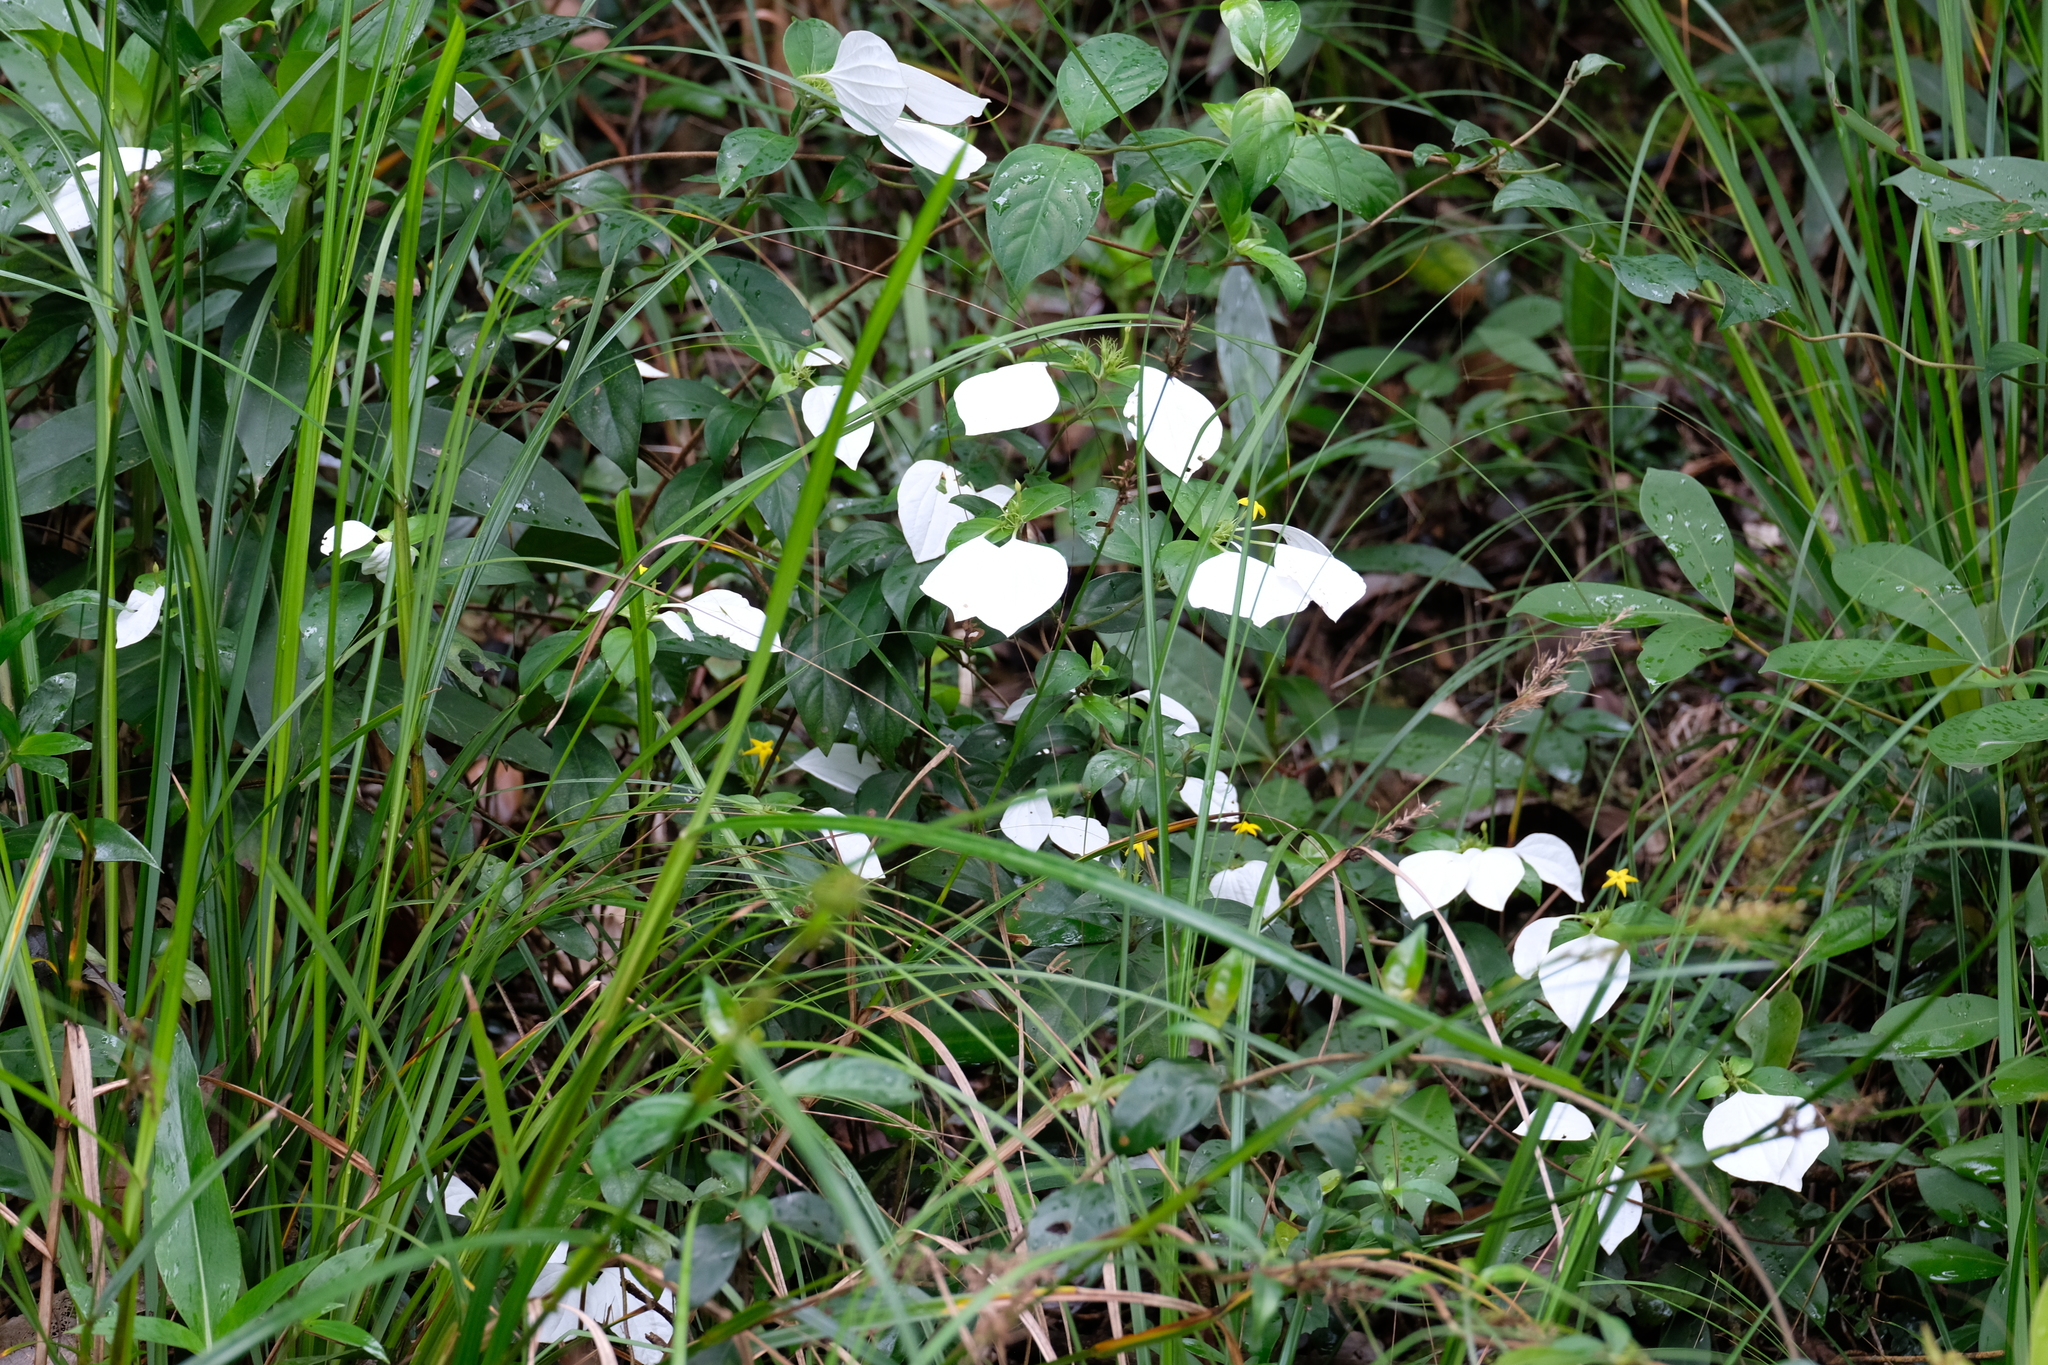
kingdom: Plantae
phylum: Tracheophyta
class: Magnoliopsida
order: Gentianales
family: Rubiaceae
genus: Mussaenda
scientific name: Mussaenda pubescens
